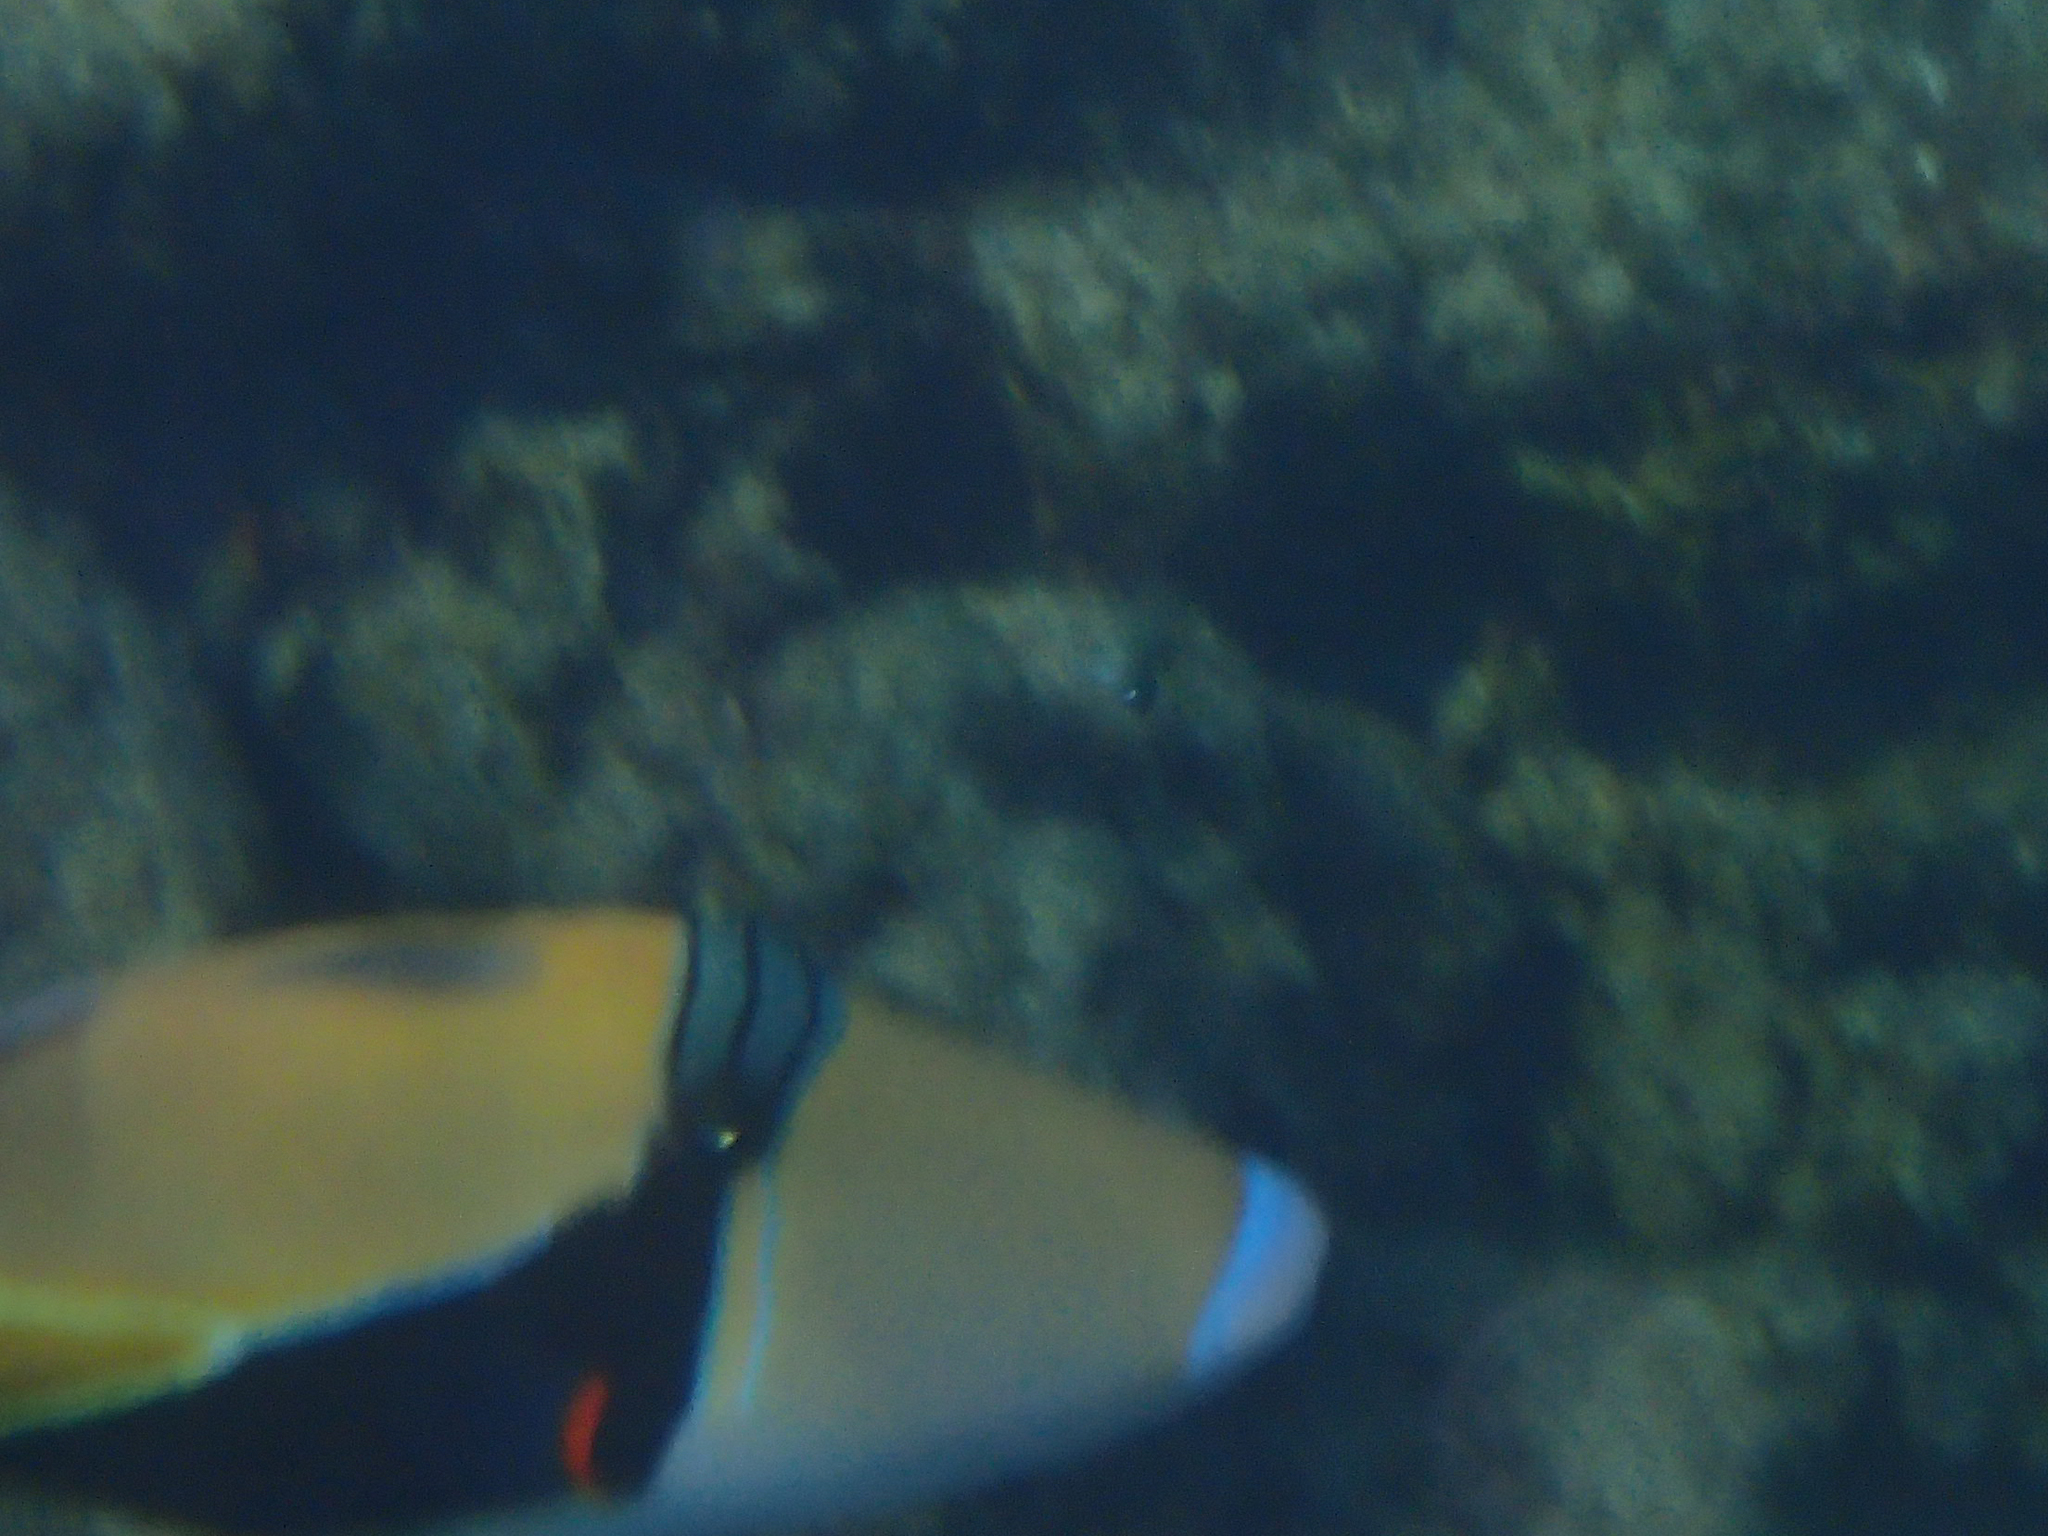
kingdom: Animalia
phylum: Chordata
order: Tetraodontiformes
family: Balistidae
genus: Rhinecanthus
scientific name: Rhinecanthus rectangulus
